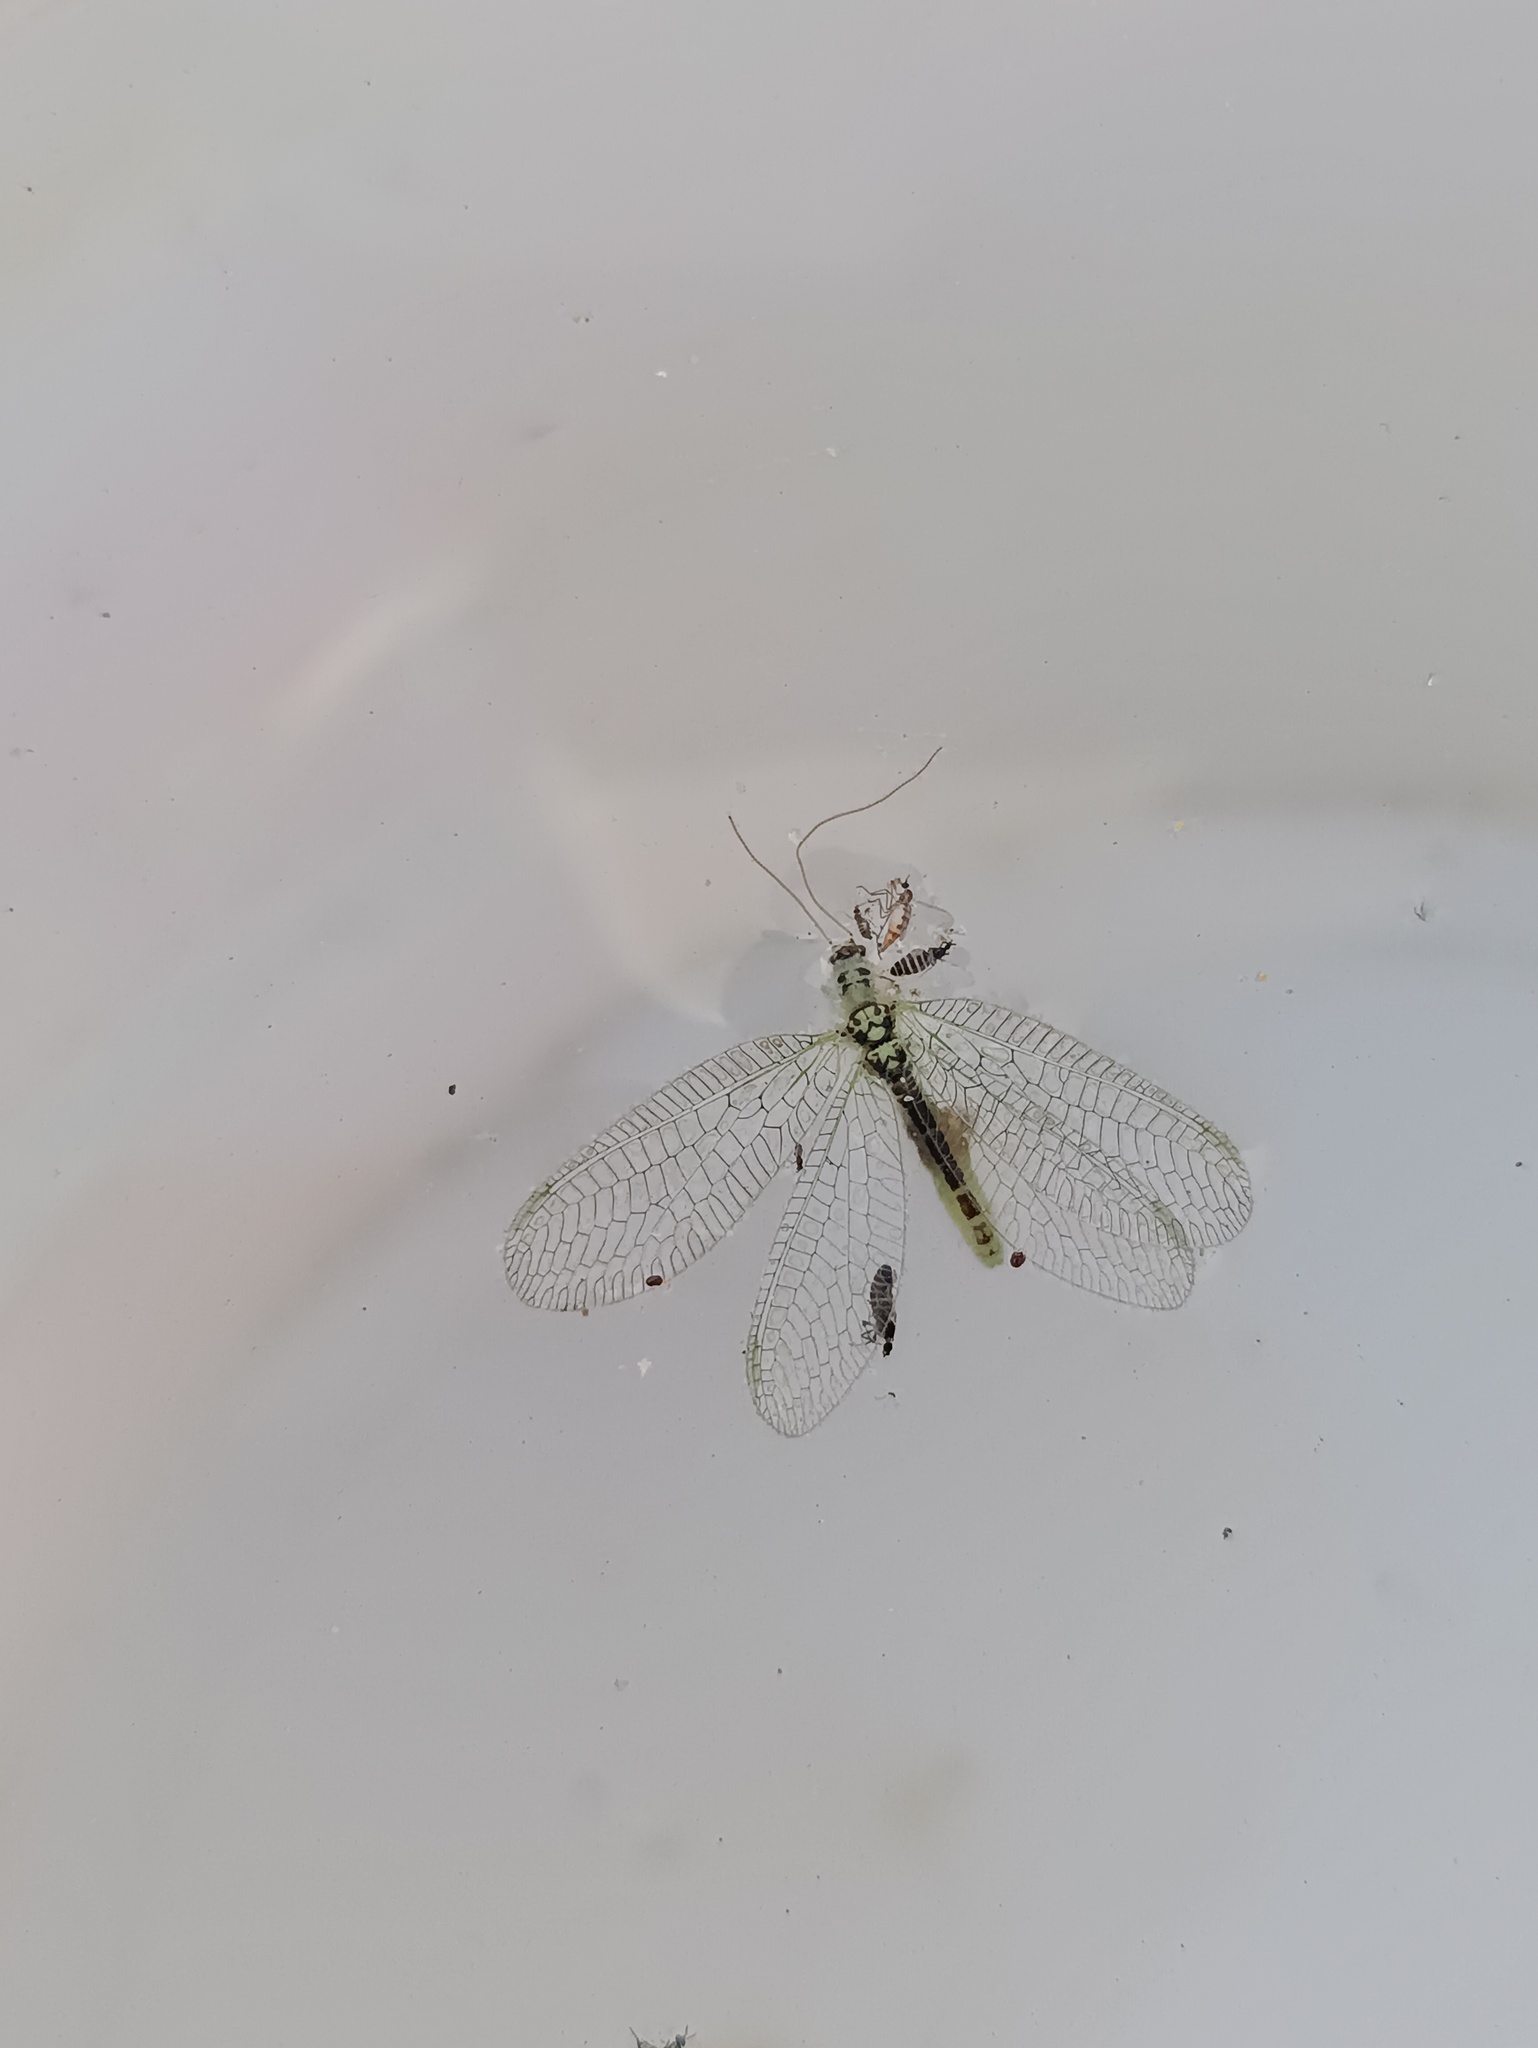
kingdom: Animalia
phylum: Arthropoda
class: Insecta
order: Neuroptera
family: Chrysopidae
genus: Chrysopa
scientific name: Chrysopa perla
